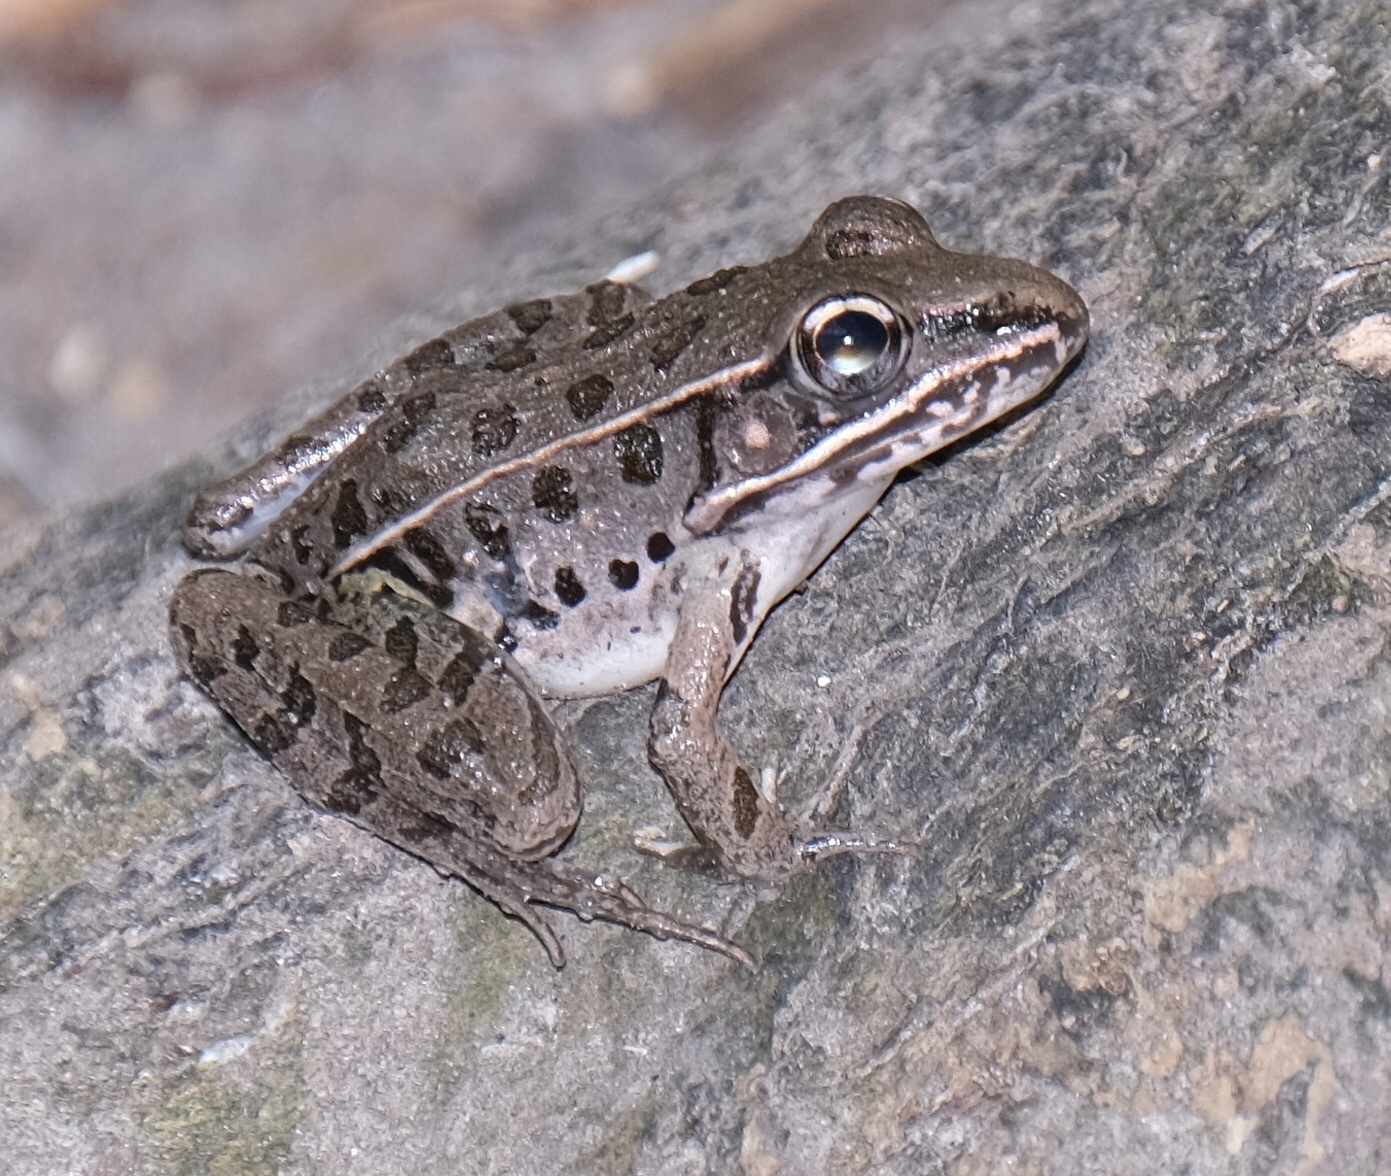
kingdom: Animalia
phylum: Chordata
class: Amphibia
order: Anura
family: Ranidae
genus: Lithobates
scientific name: Lithobates sphenocephalus
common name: Southern leopard frog
